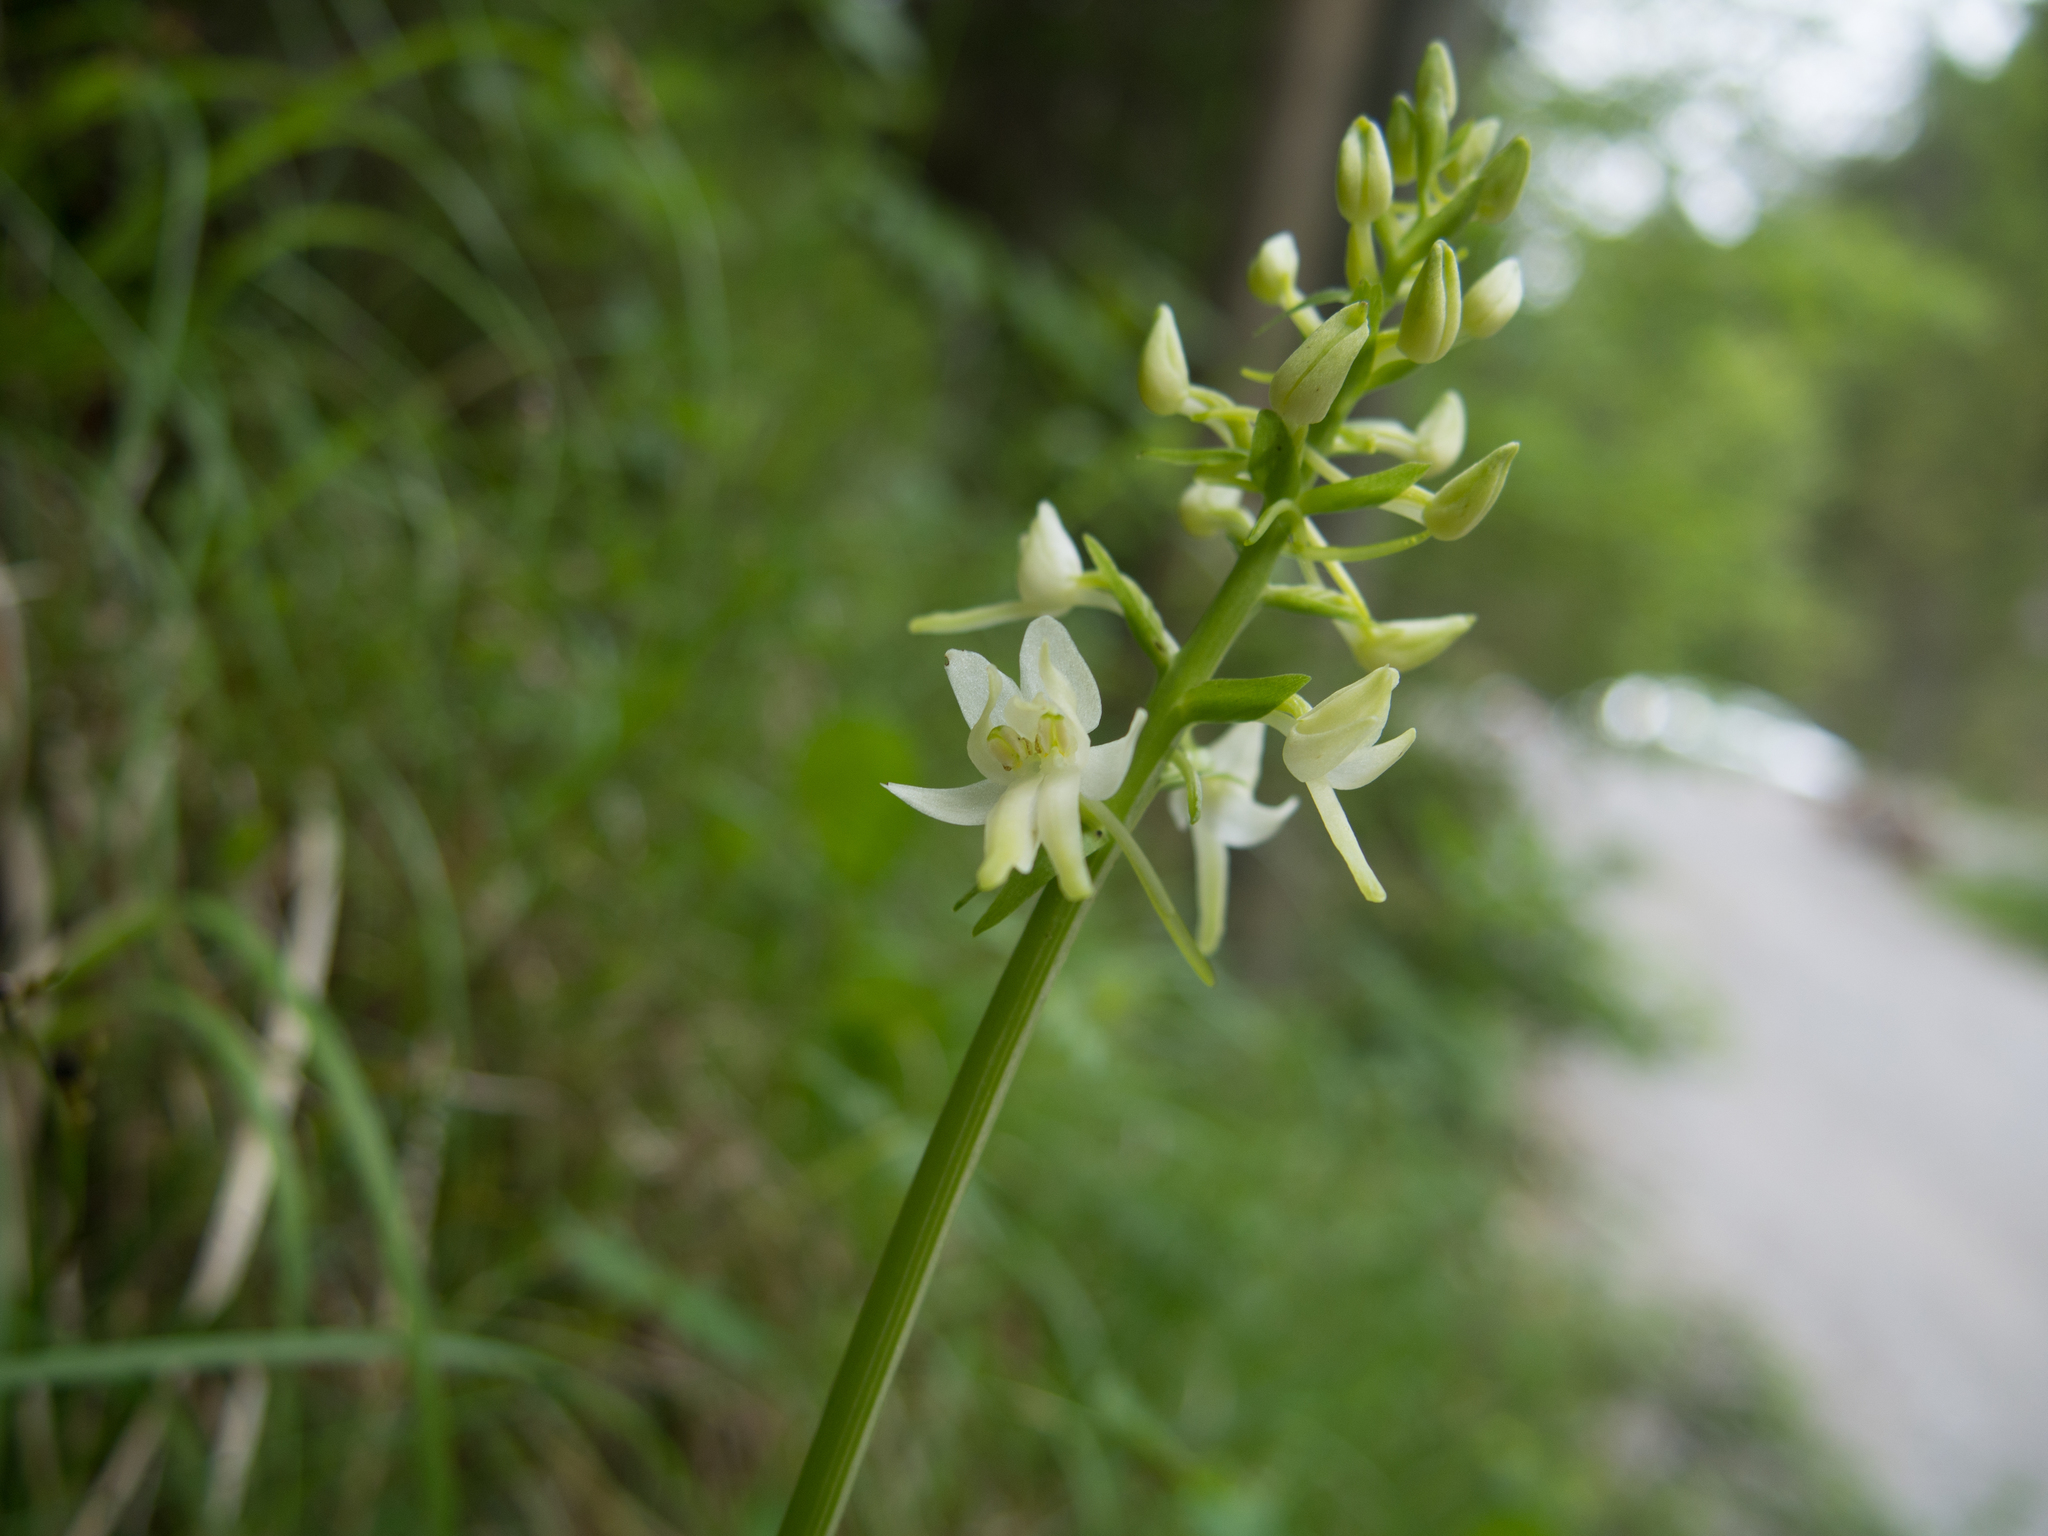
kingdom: Plantae
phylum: Tracheophyta
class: Liliopsida
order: Asparagales
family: Orchidaceae
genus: Platanthera
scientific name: Platanthera bifolia
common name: Lesser butterfly-orchid
